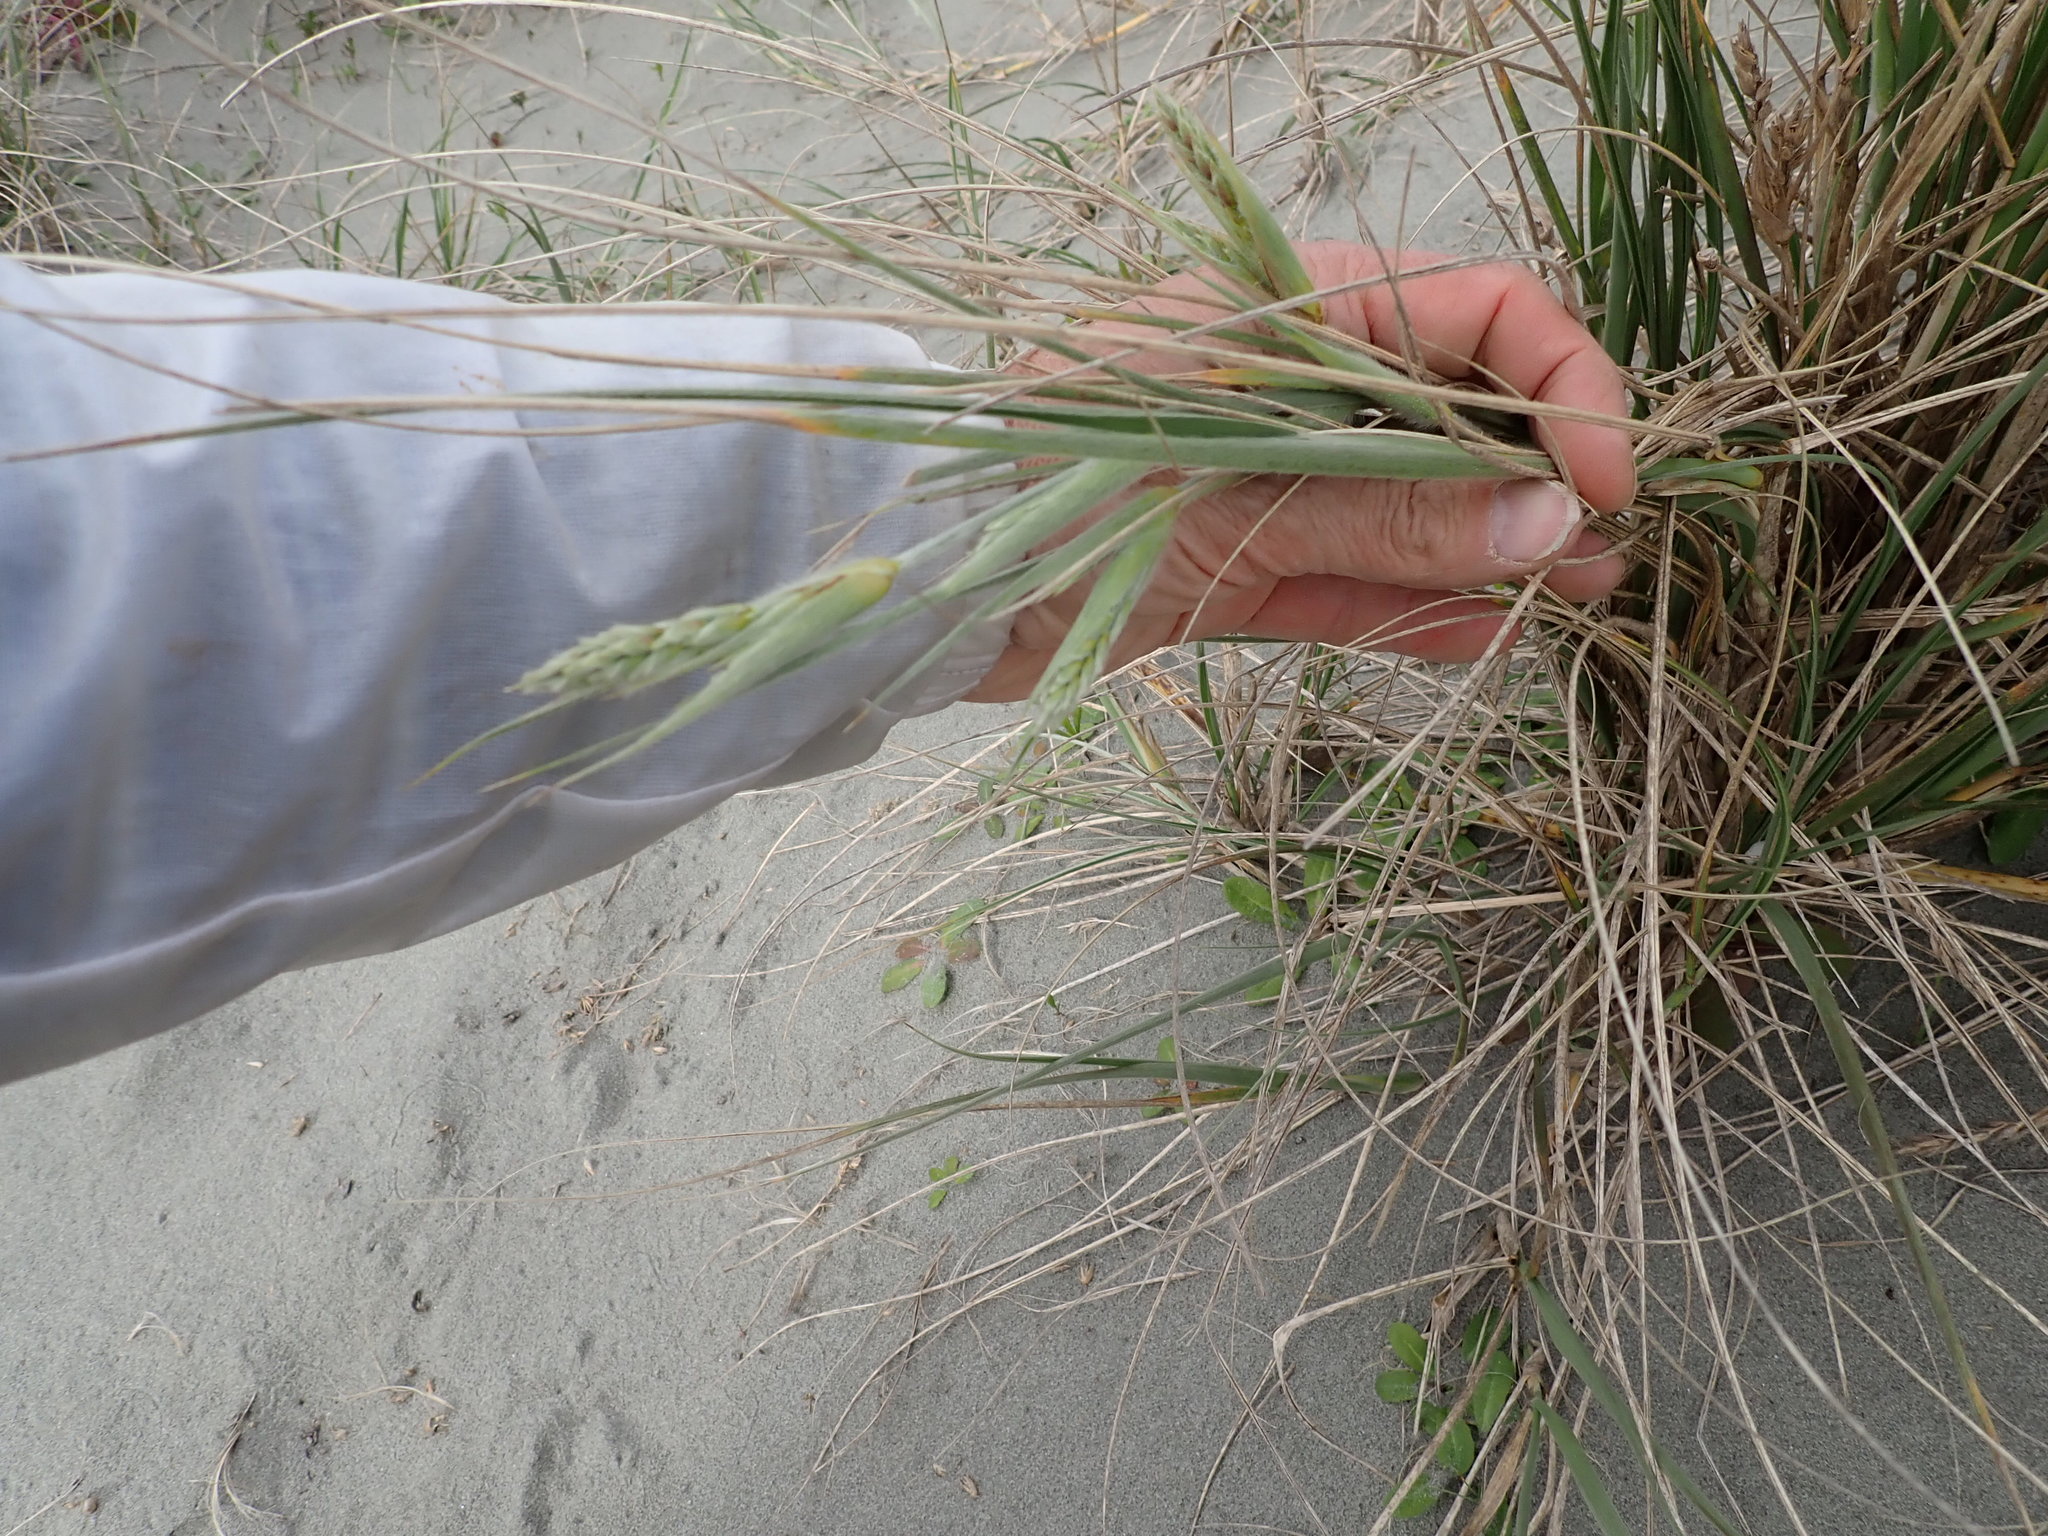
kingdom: Plantae
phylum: Tracheophyta
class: Liliopsida
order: Poales
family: Poaceae
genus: Spinifex
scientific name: Spinifex sericeus
